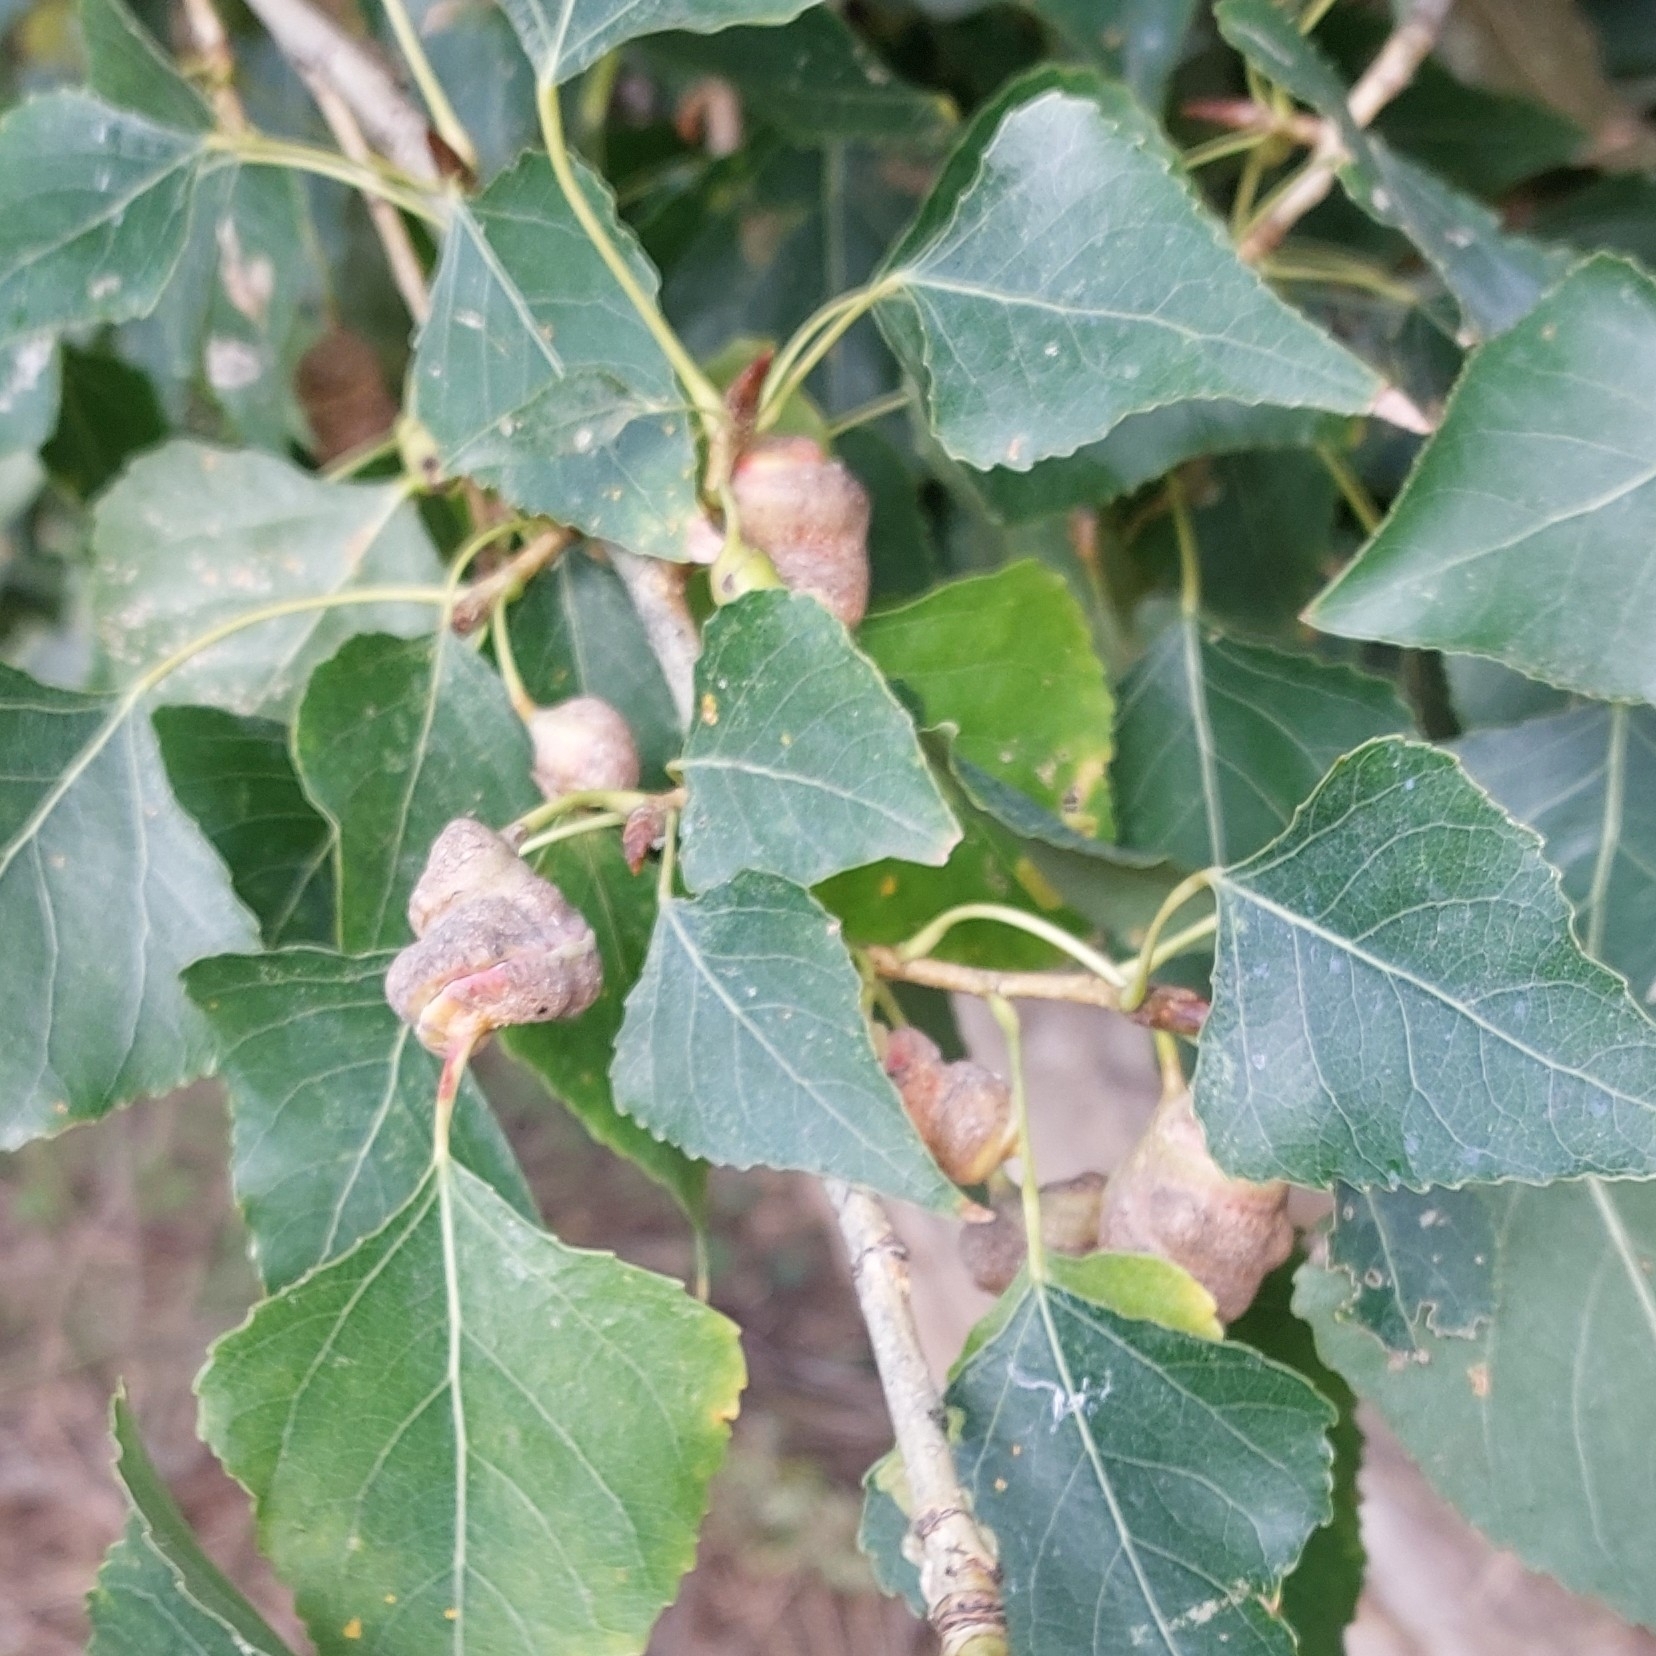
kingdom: Animalia
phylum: Arthropoda
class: Insecta
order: Hemiptera
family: Aphididae
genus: Pemphigus
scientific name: Pemphigus spyrothecae
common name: Aphid
